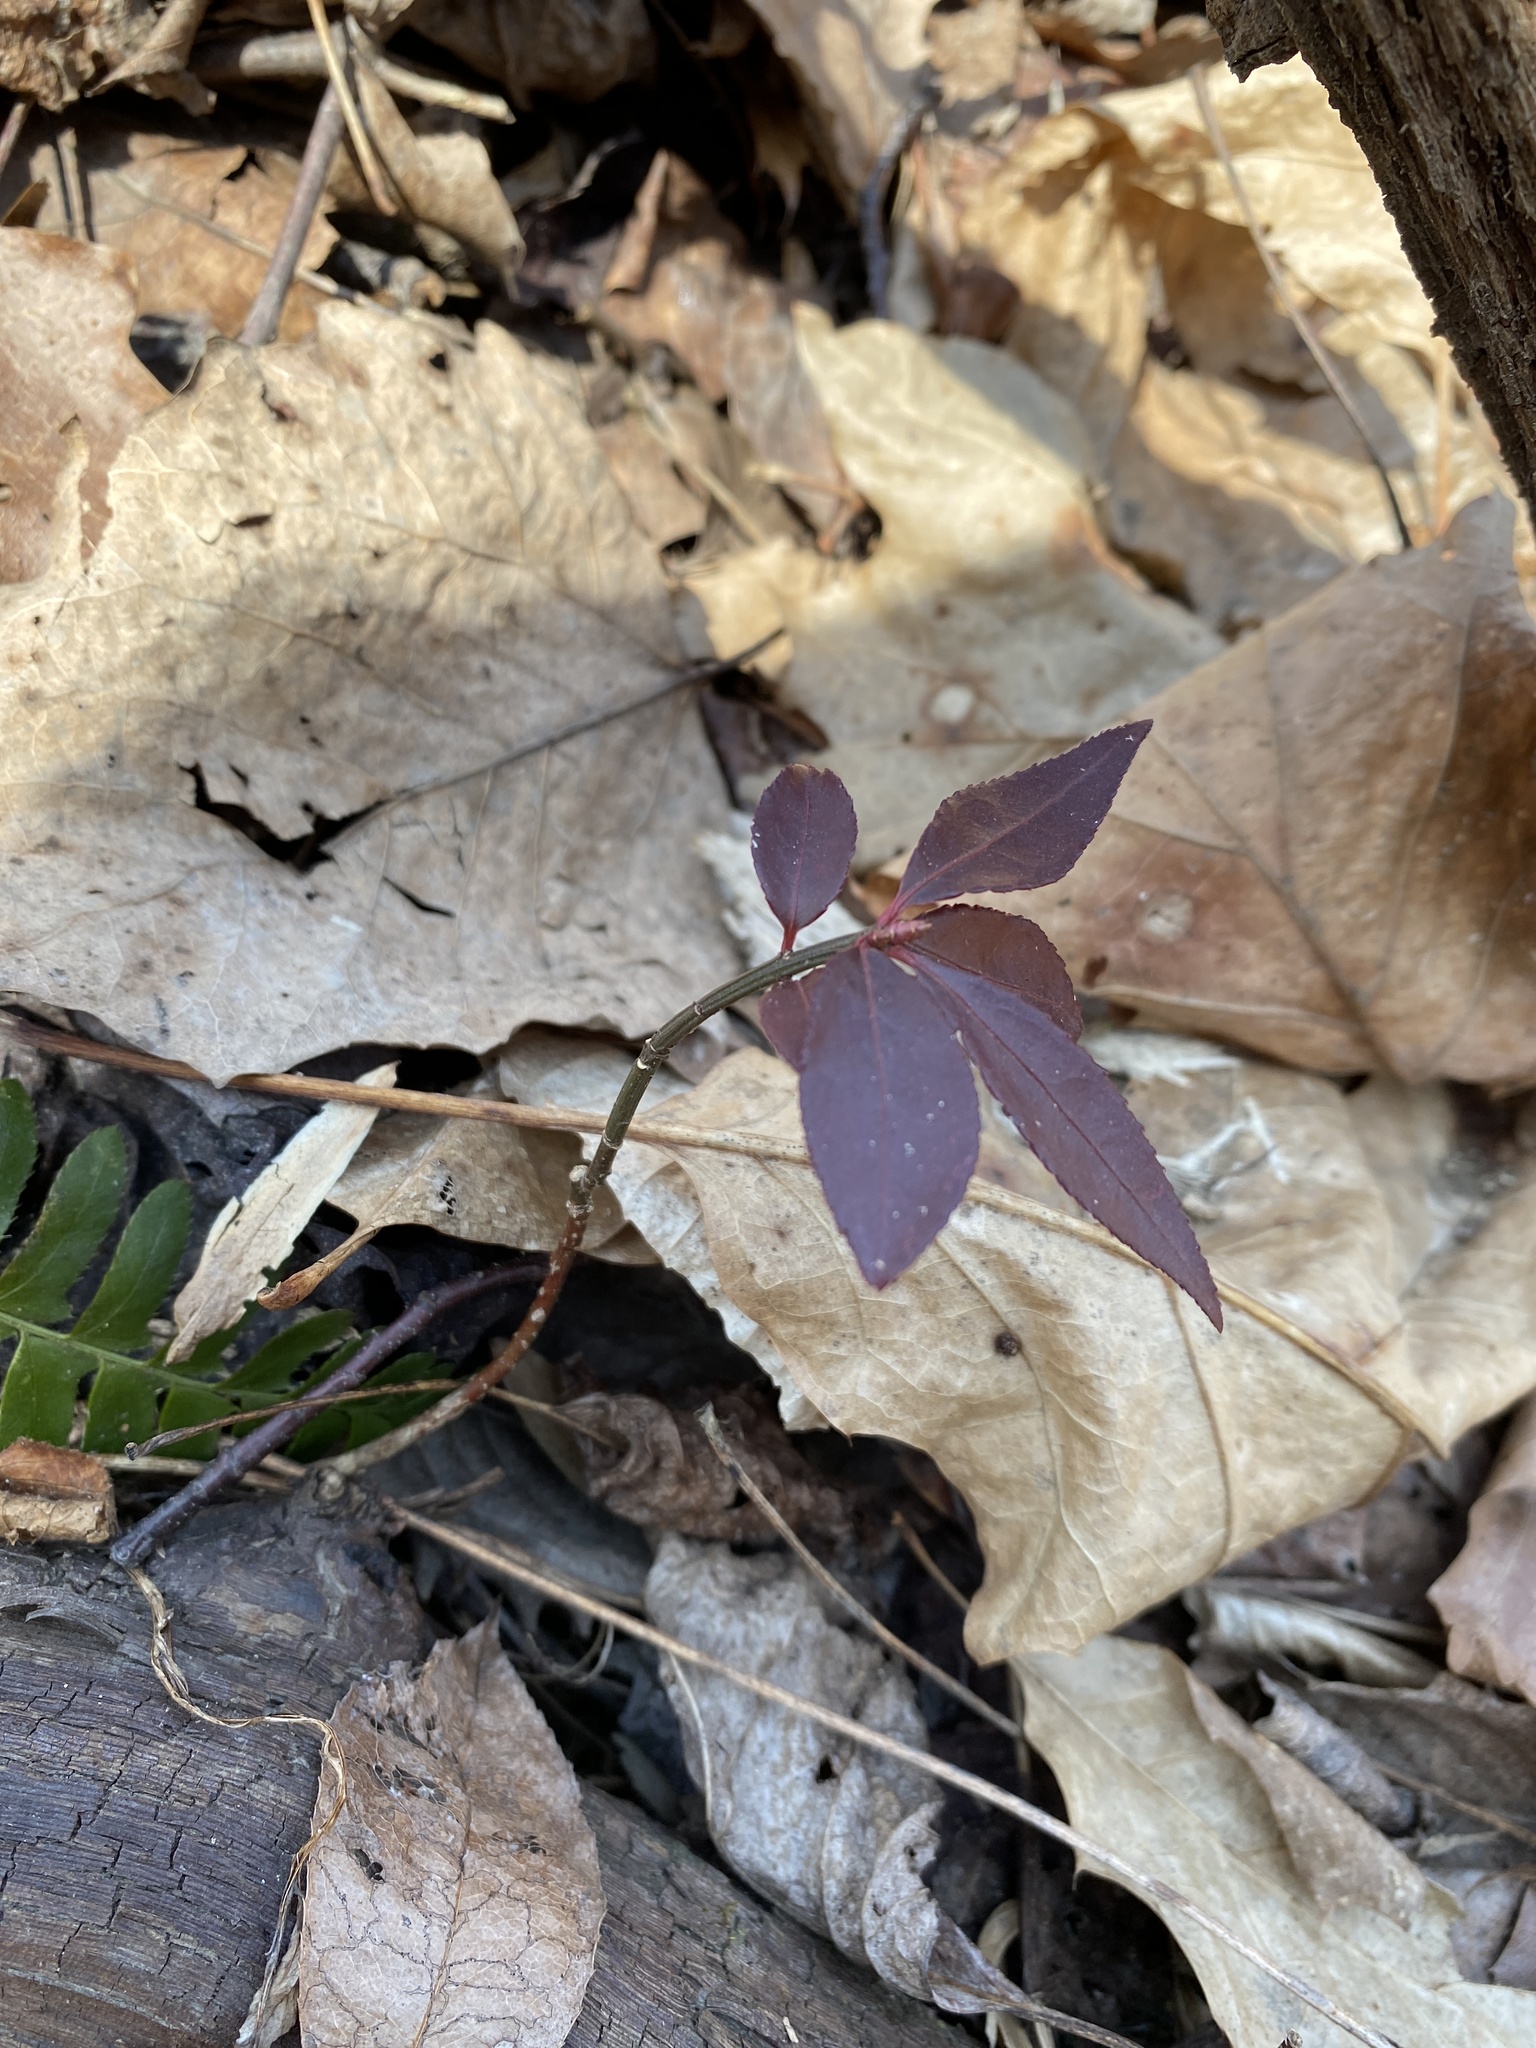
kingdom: Plantae
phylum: Tracheophyta
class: Magnoliopsida
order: Celastrales
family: Celastraceae
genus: Euonymus
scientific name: Euonymus alatus
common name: Winged euonymus
